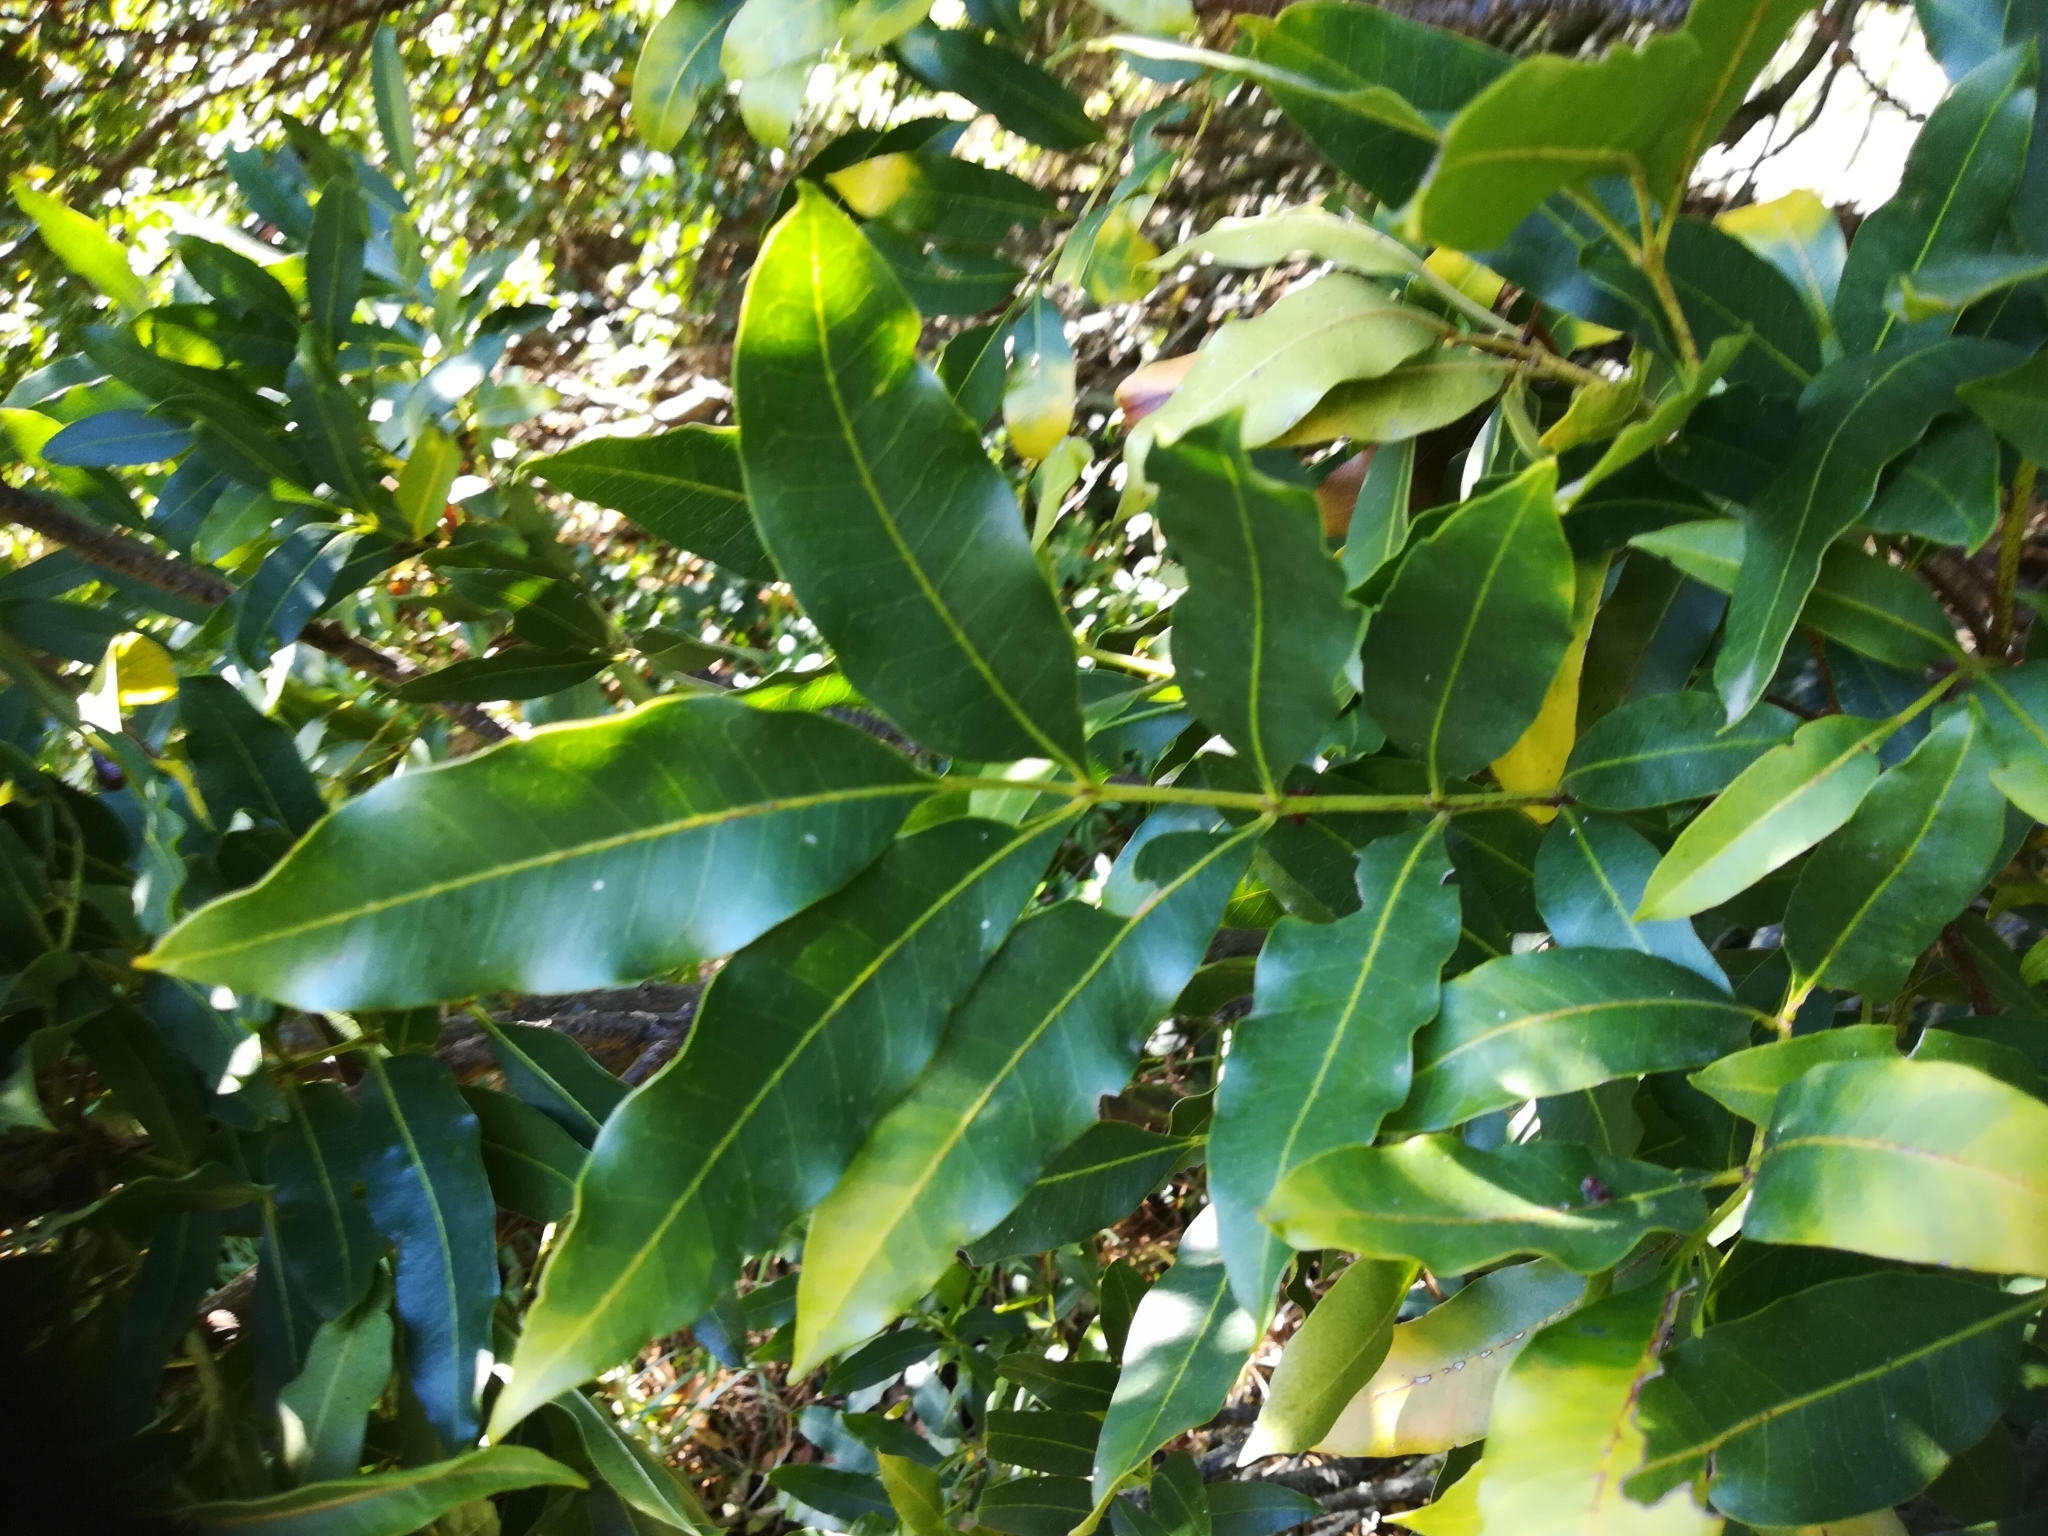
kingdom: Plantae
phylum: Tracheophyta
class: Magnoliopsida
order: Sapindales
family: Meliaceae
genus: Ekebergia
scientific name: Ekebergia capensis
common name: Cape-ash
